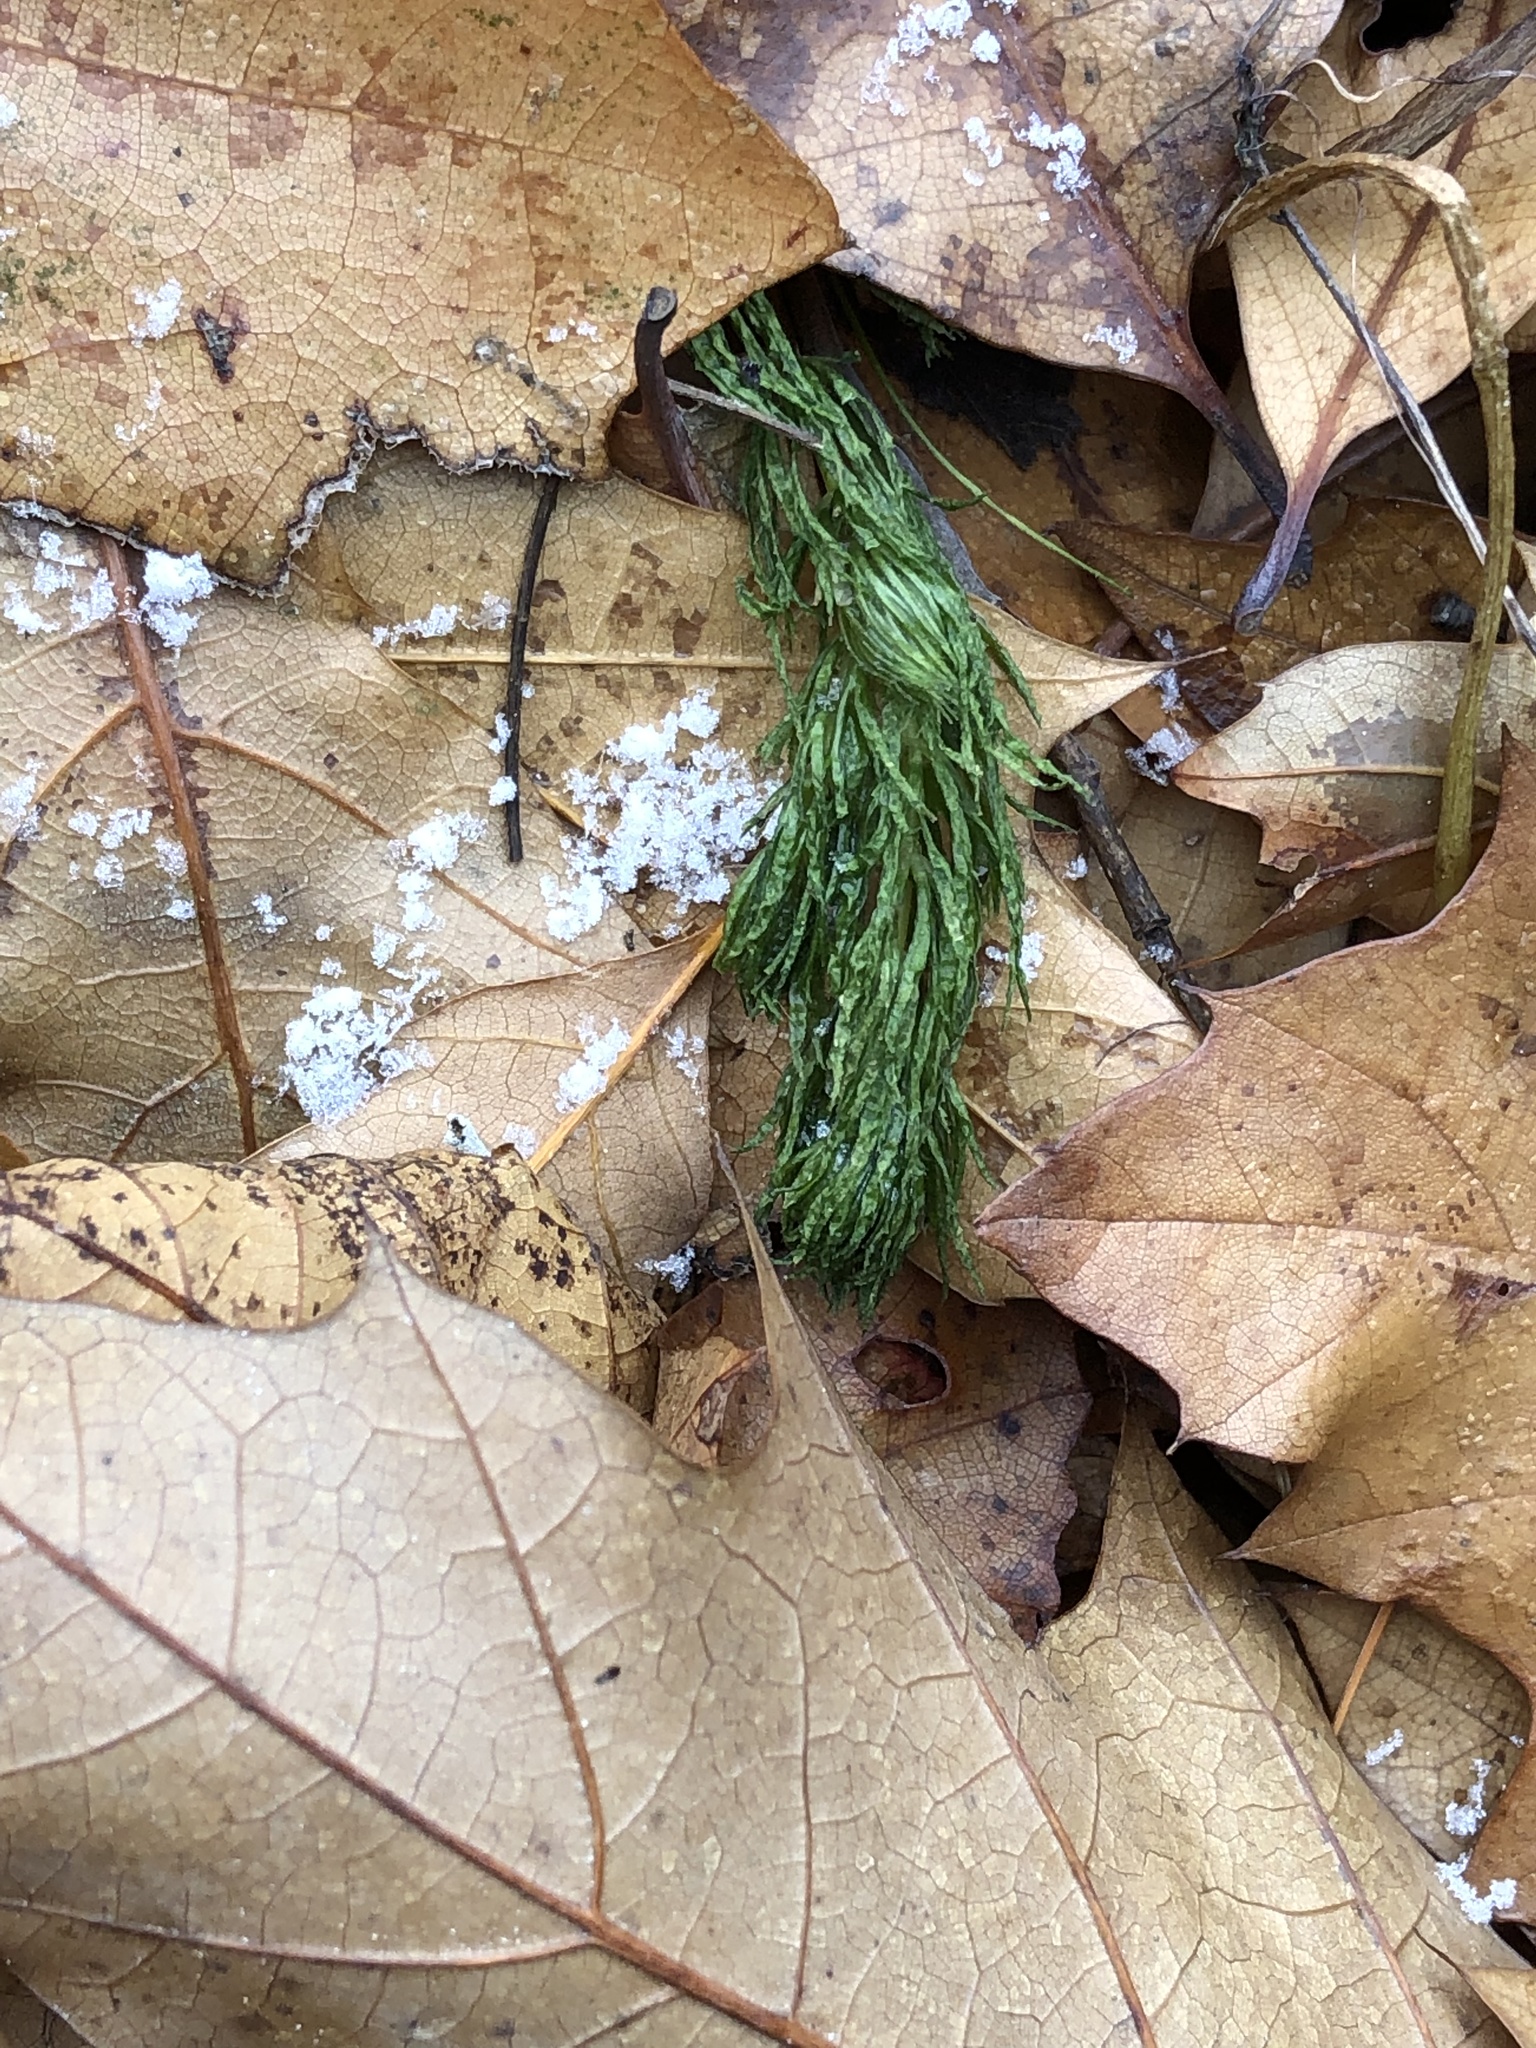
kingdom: Plantae
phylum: Tracheophyta
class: Magnoliopsida
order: Ceratophyllales
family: Ceratophyllaceae
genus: Ceratophyllum
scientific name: Ceratophyllum demersum
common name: Rigid hornwort
